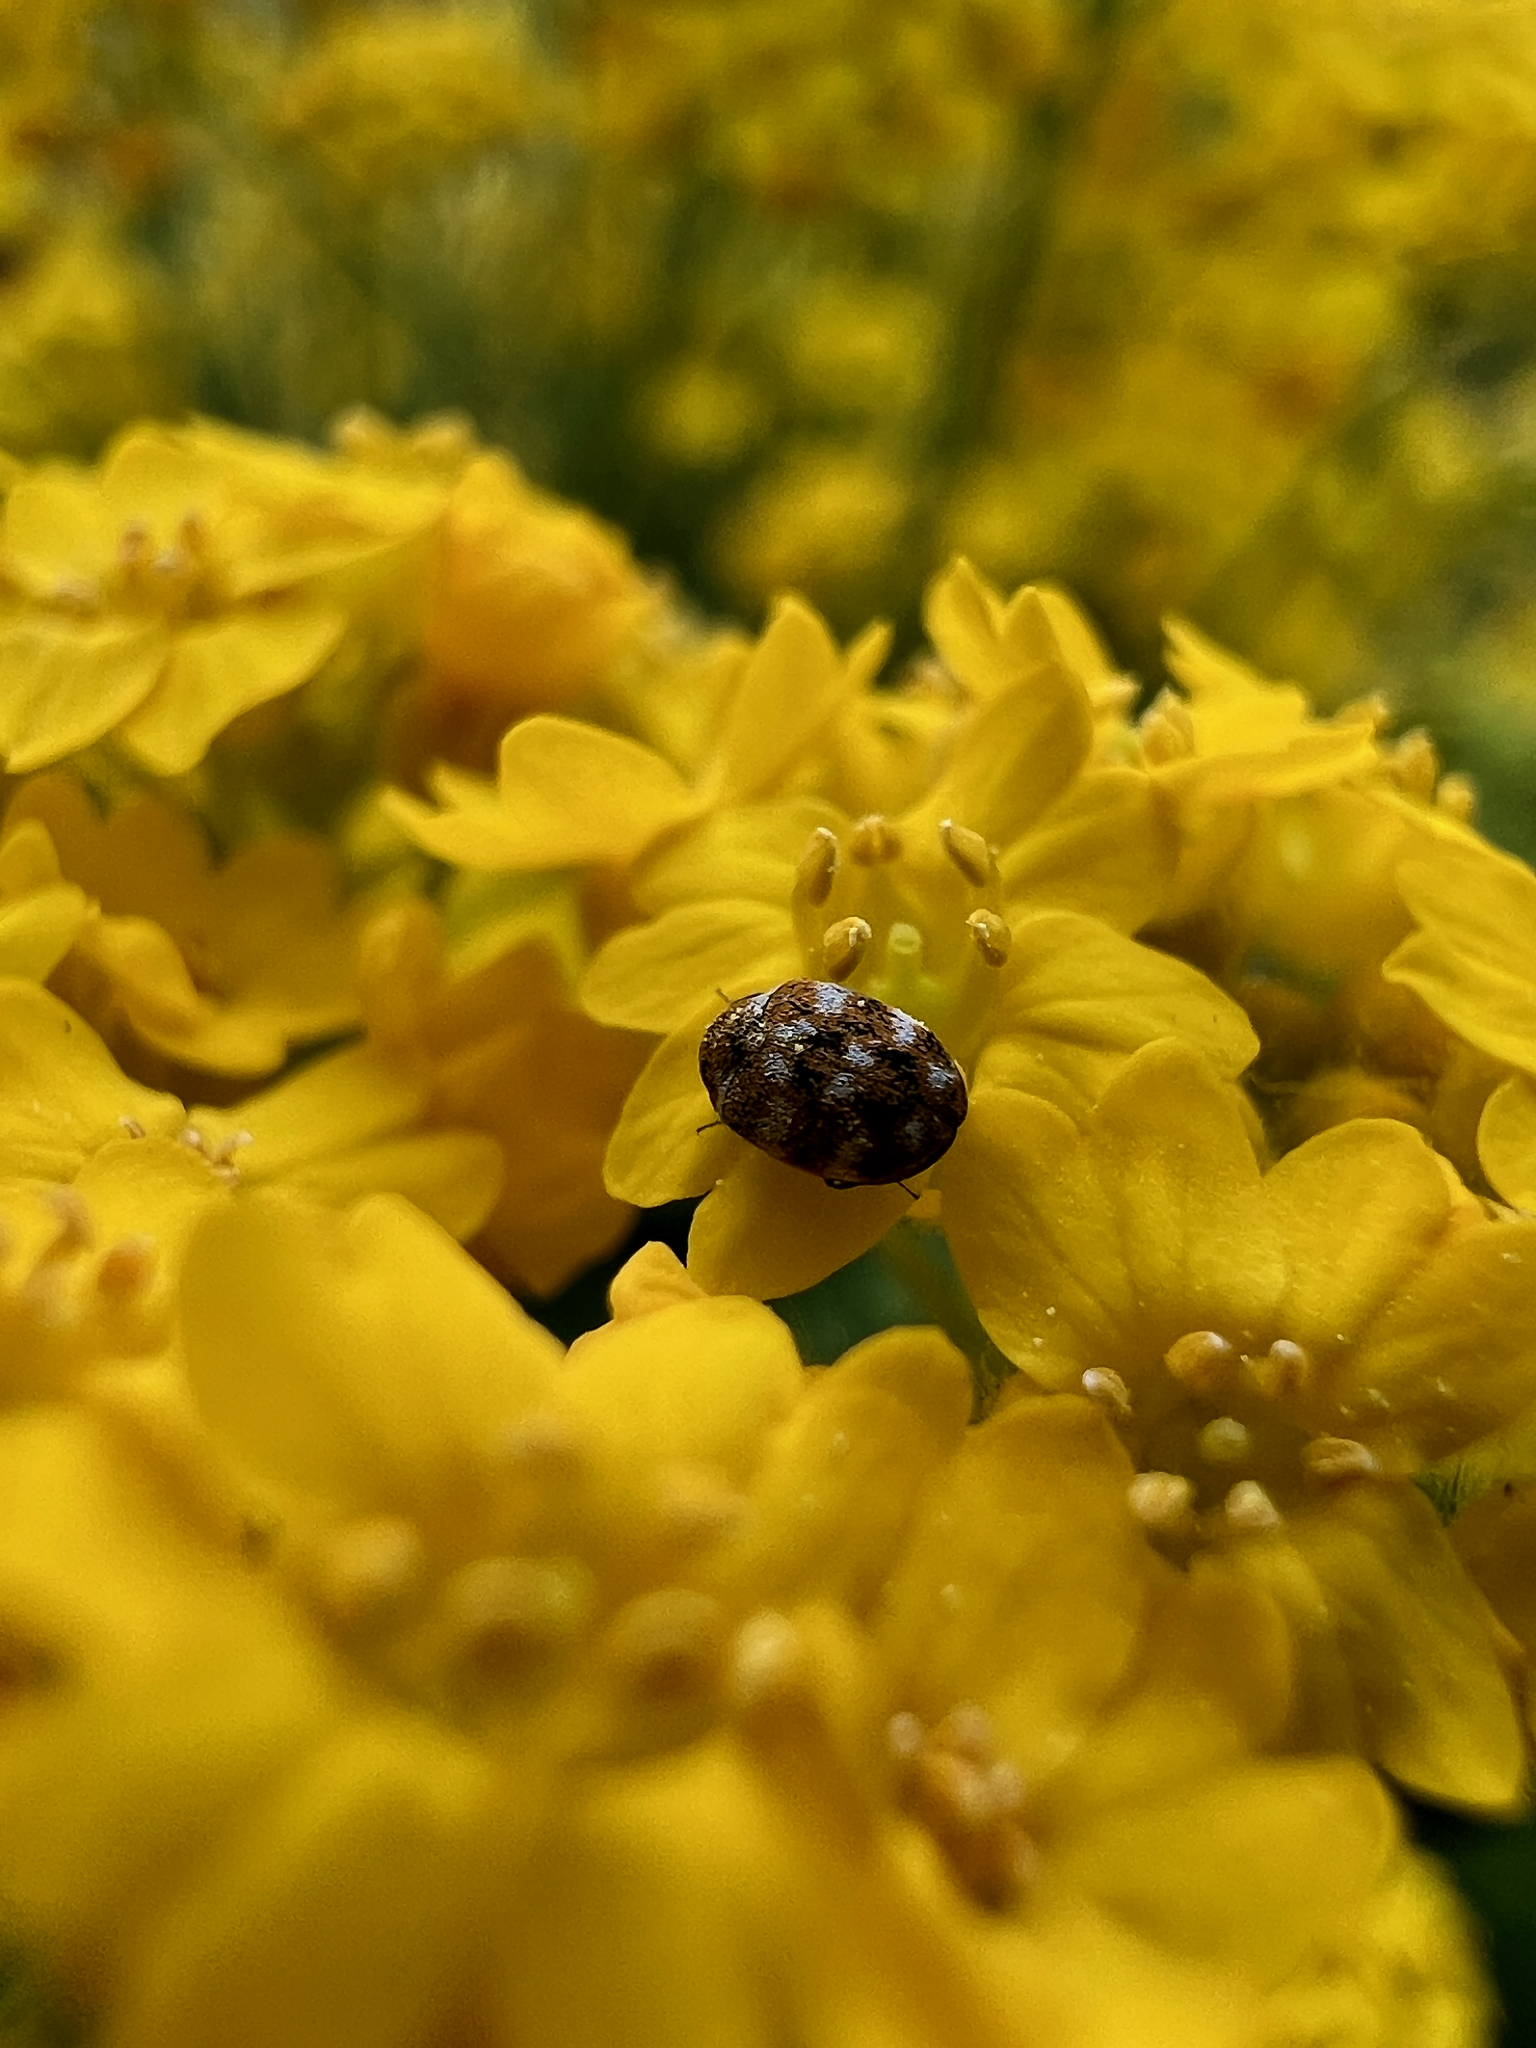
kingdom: Animalia
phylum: Arthropoda
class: Insecta
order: Coleoptera
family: Dermestidae
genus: Anthrenus
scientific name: Anthrenus verbasci
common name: Varied carpet beetle
